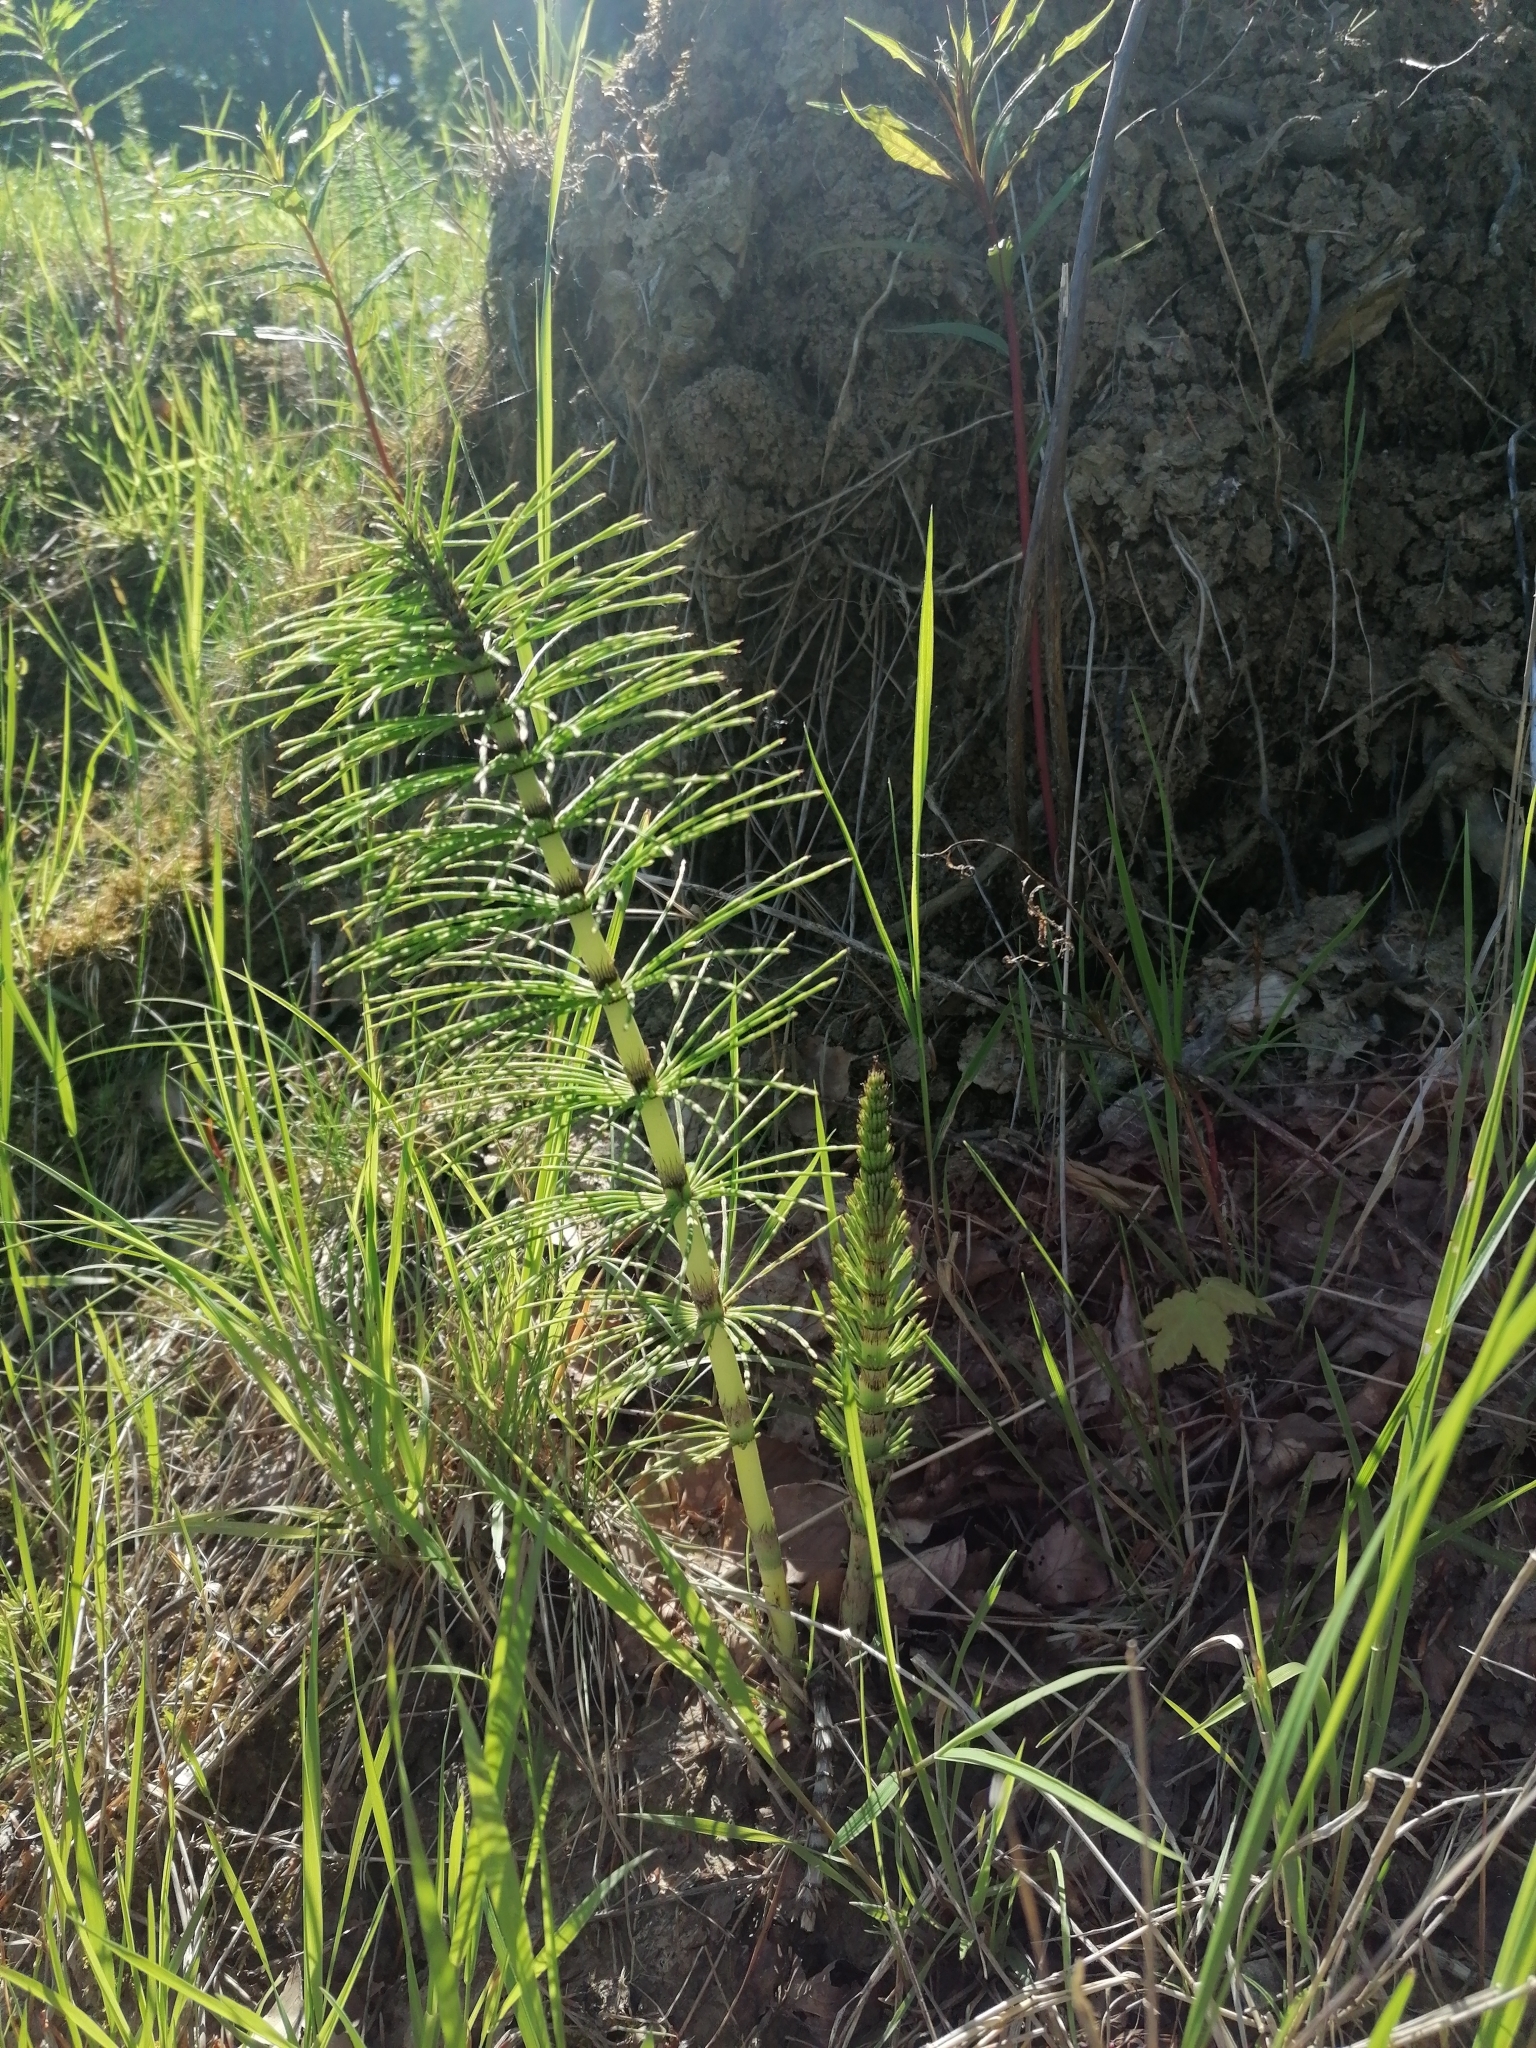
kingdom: Plantae
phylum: Tracheophyta
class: Polypodiopsida
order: Equisetales
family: Equisetaceae
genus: Equisetum
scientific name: Equisetum telmateia
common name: Great horsetail
